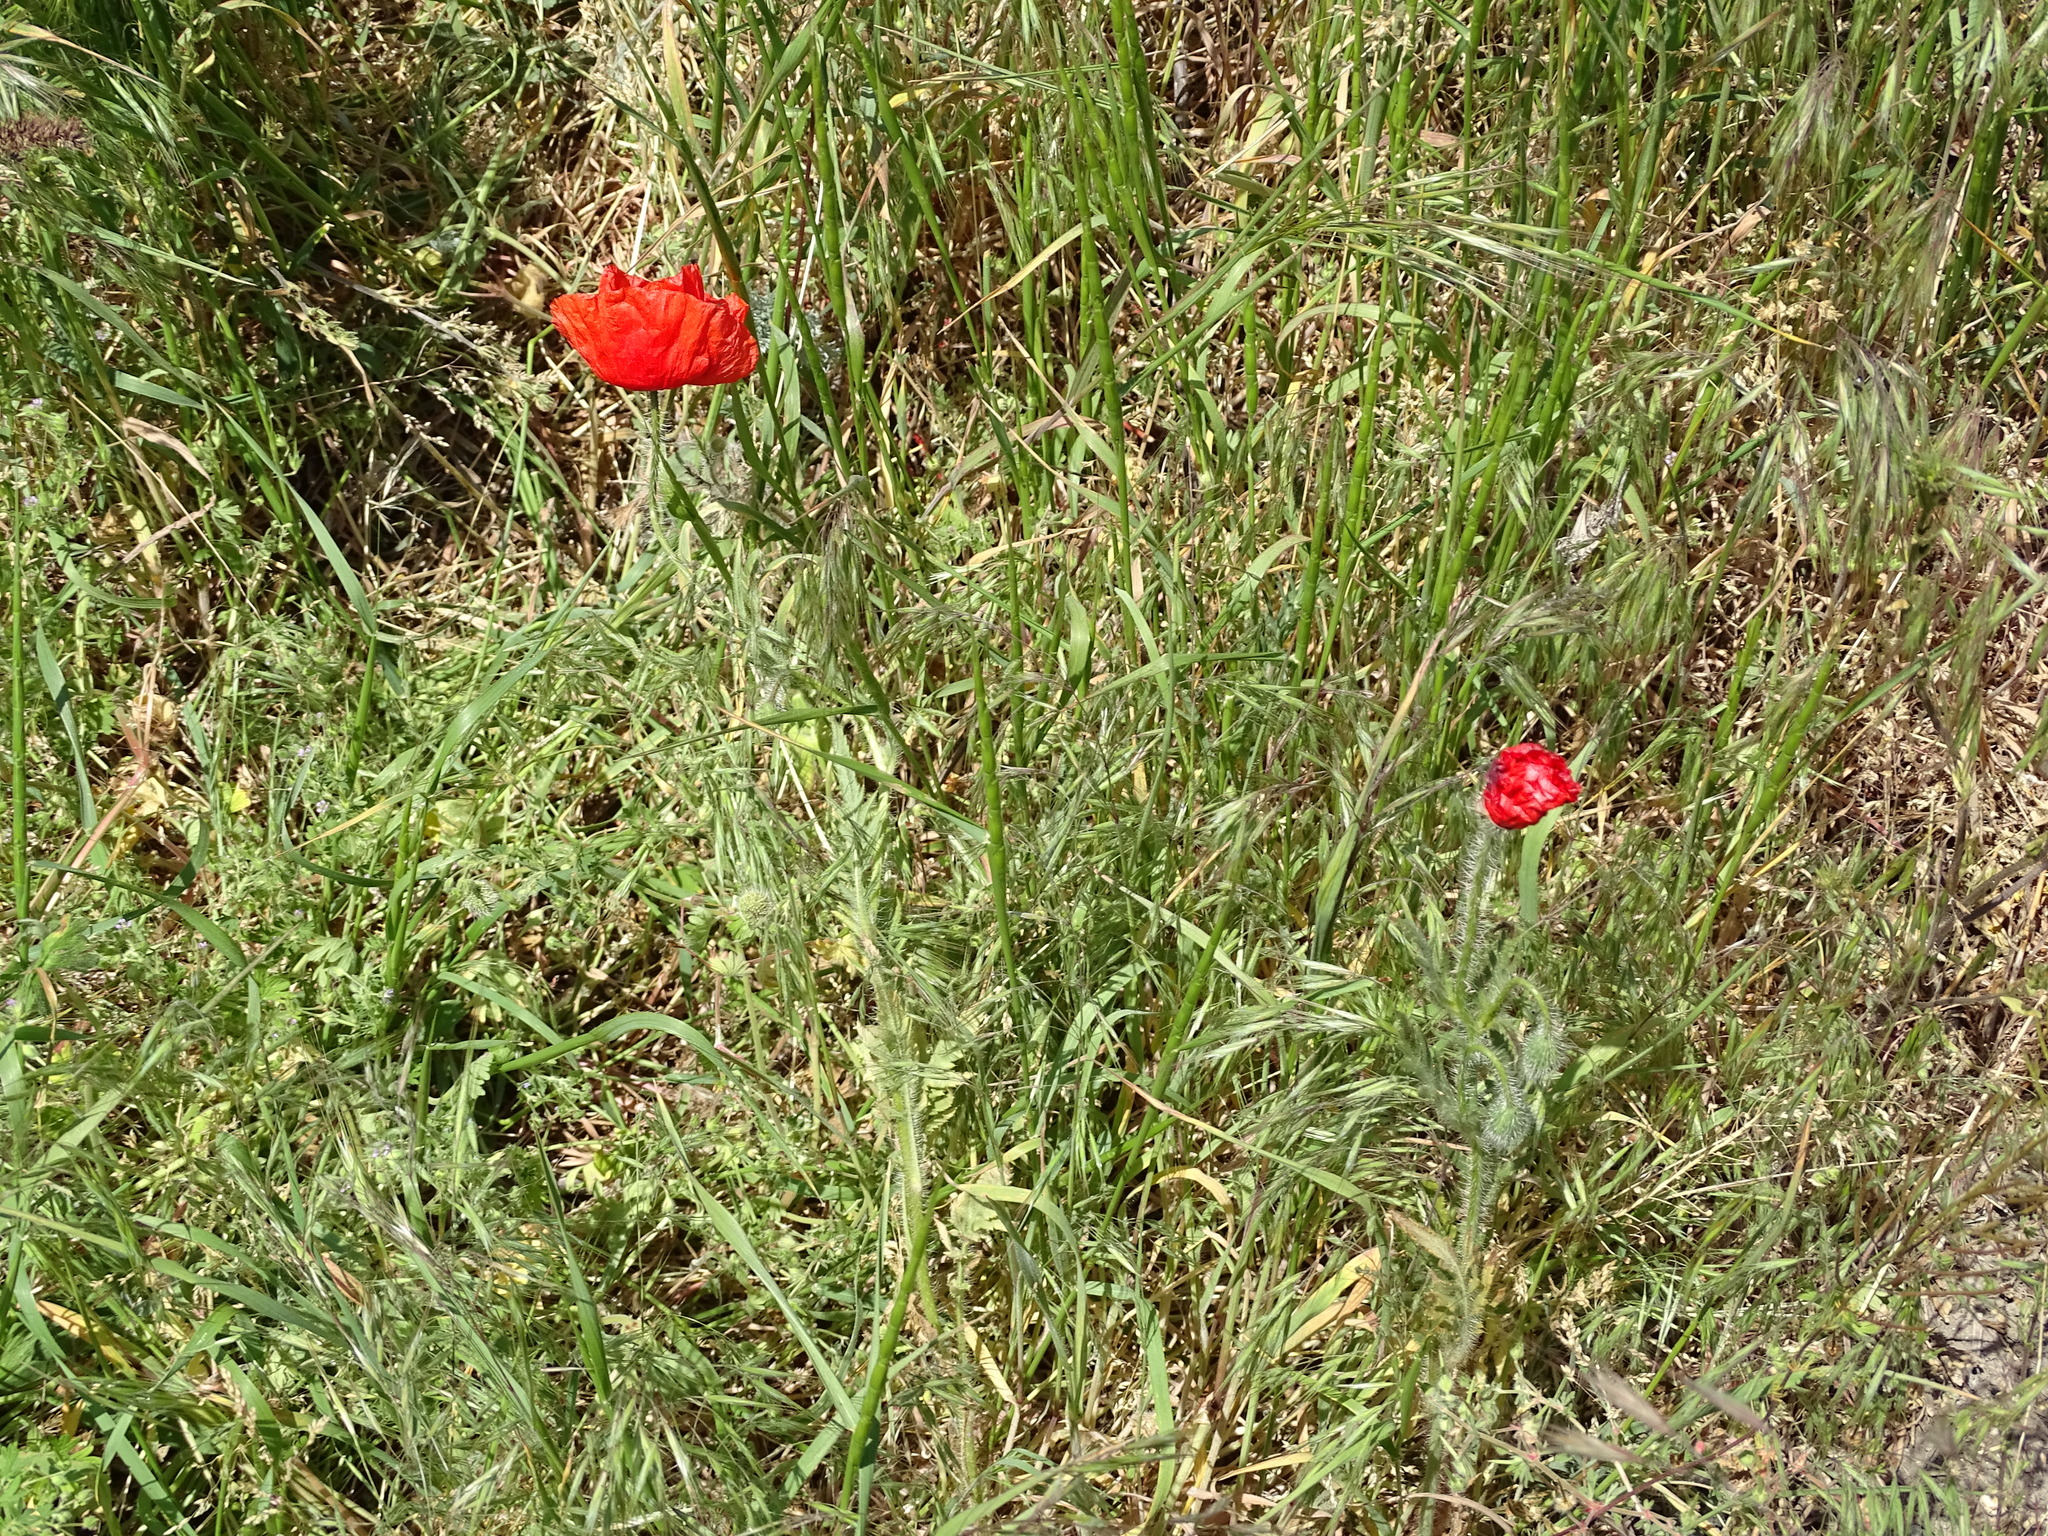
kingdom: Plantae
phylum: Tracheophyta
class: Magnoliopsida
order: Ranunculales
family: Papaveraceae
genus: Papaver
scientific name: Papaver rhoeas
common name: Corn poppy
